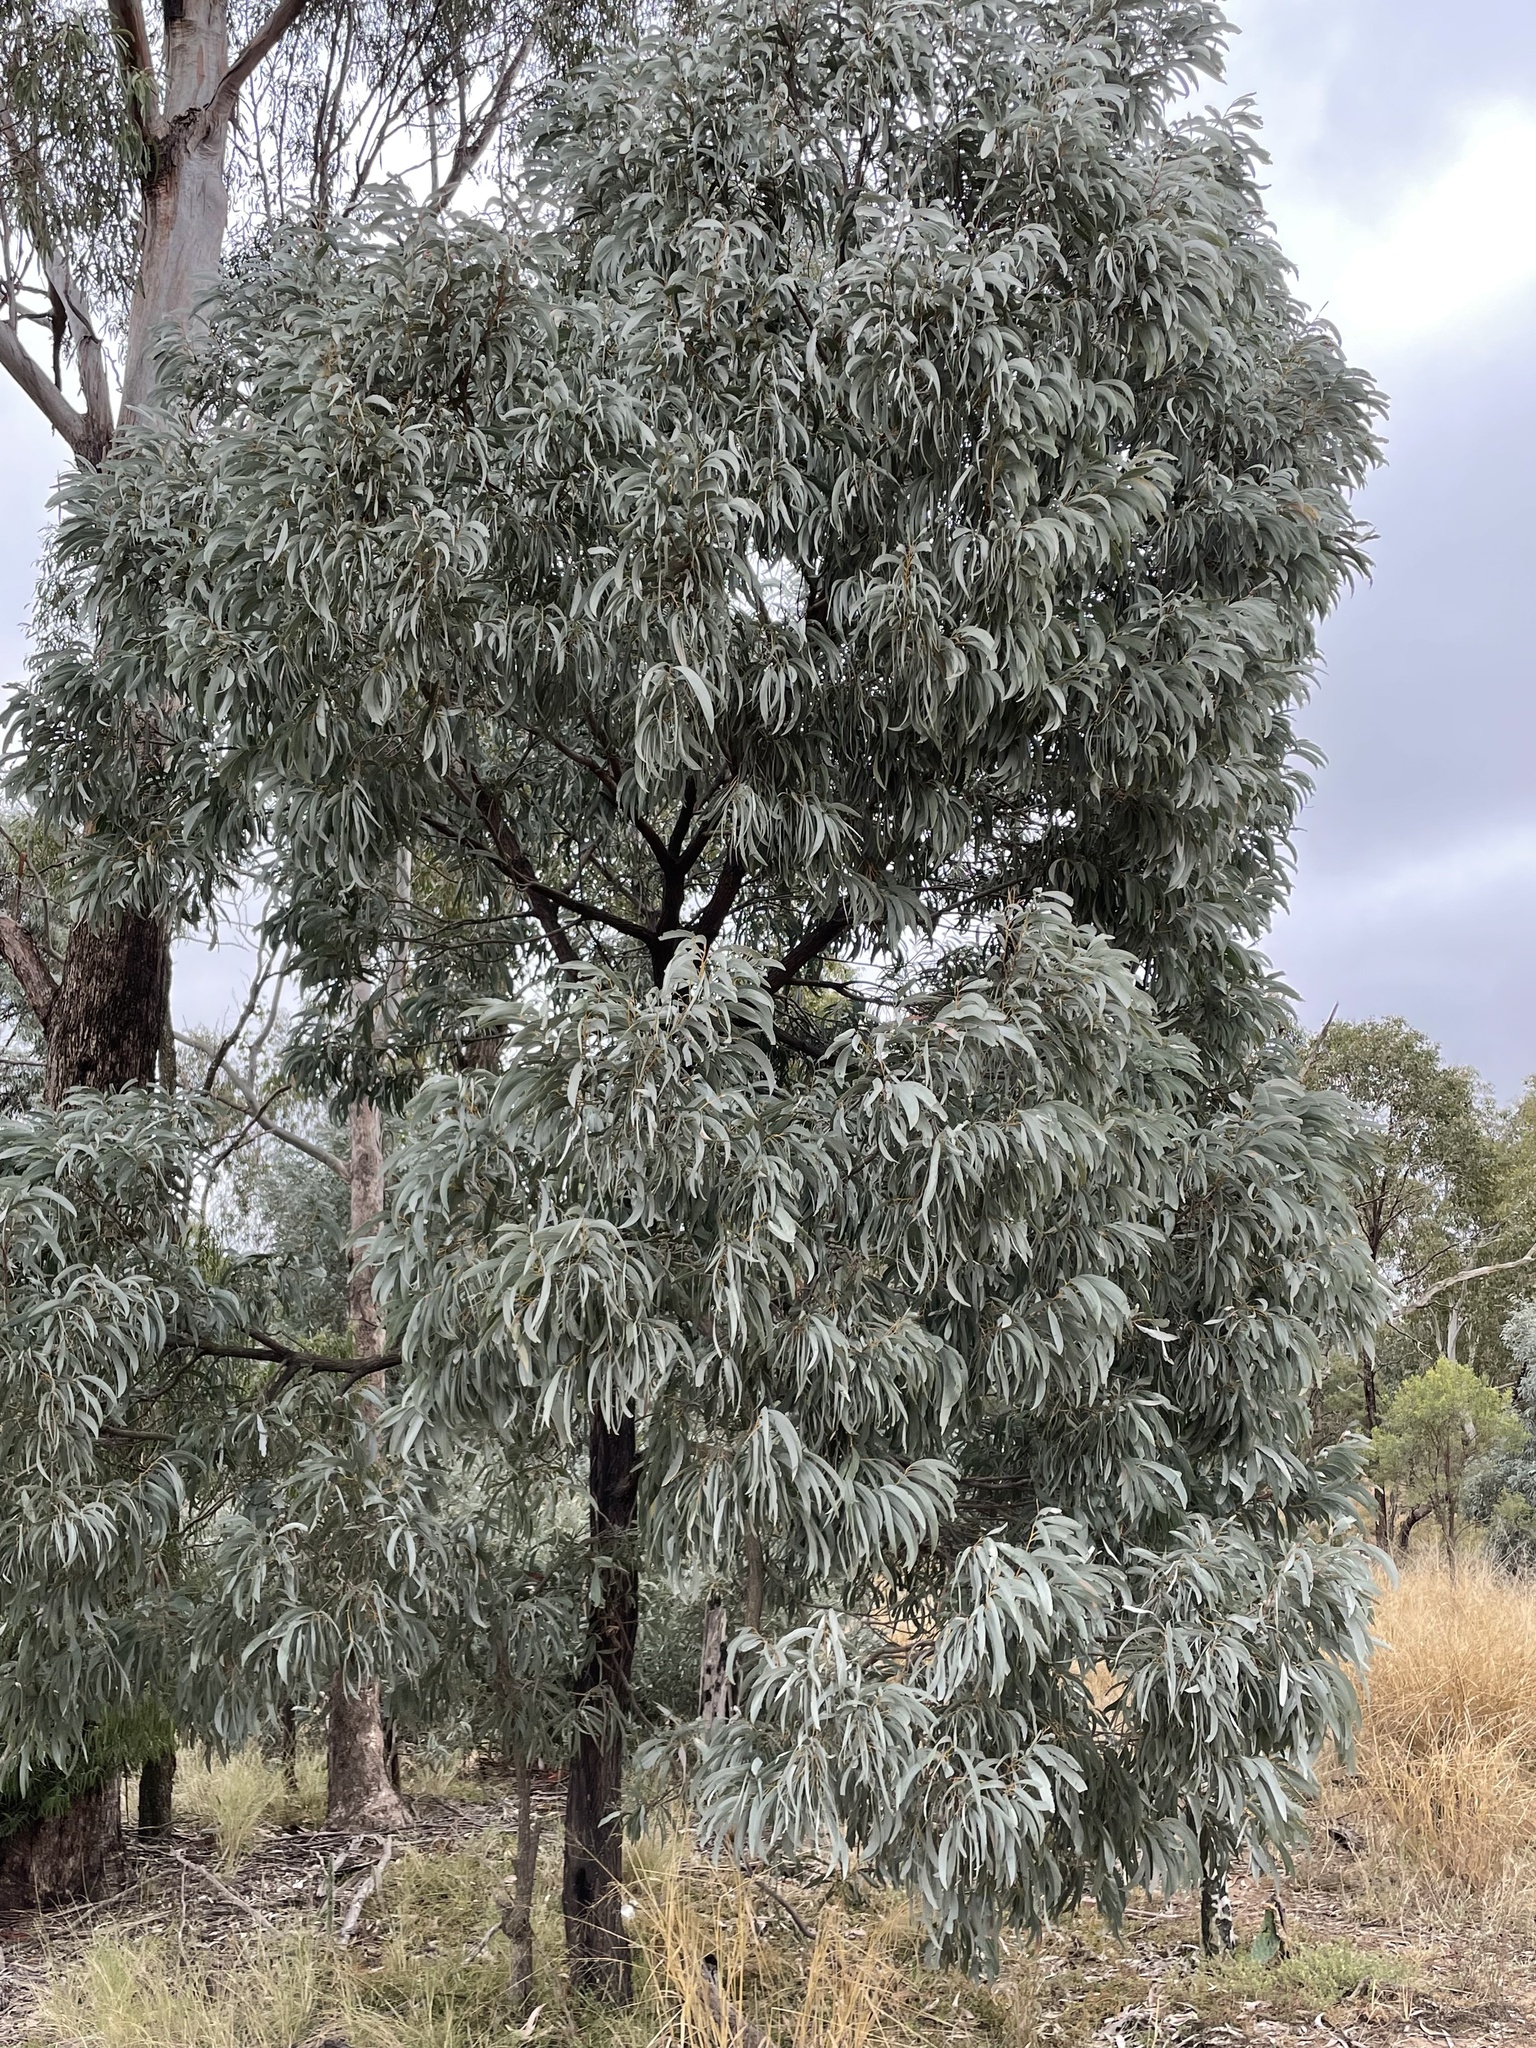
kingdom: Plantae
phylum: Tracheophyta
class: Magnoliopsida
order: Fabales
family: Fabaceae
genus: Acacia
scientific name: Acacia harpophylla
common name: Brigalow
